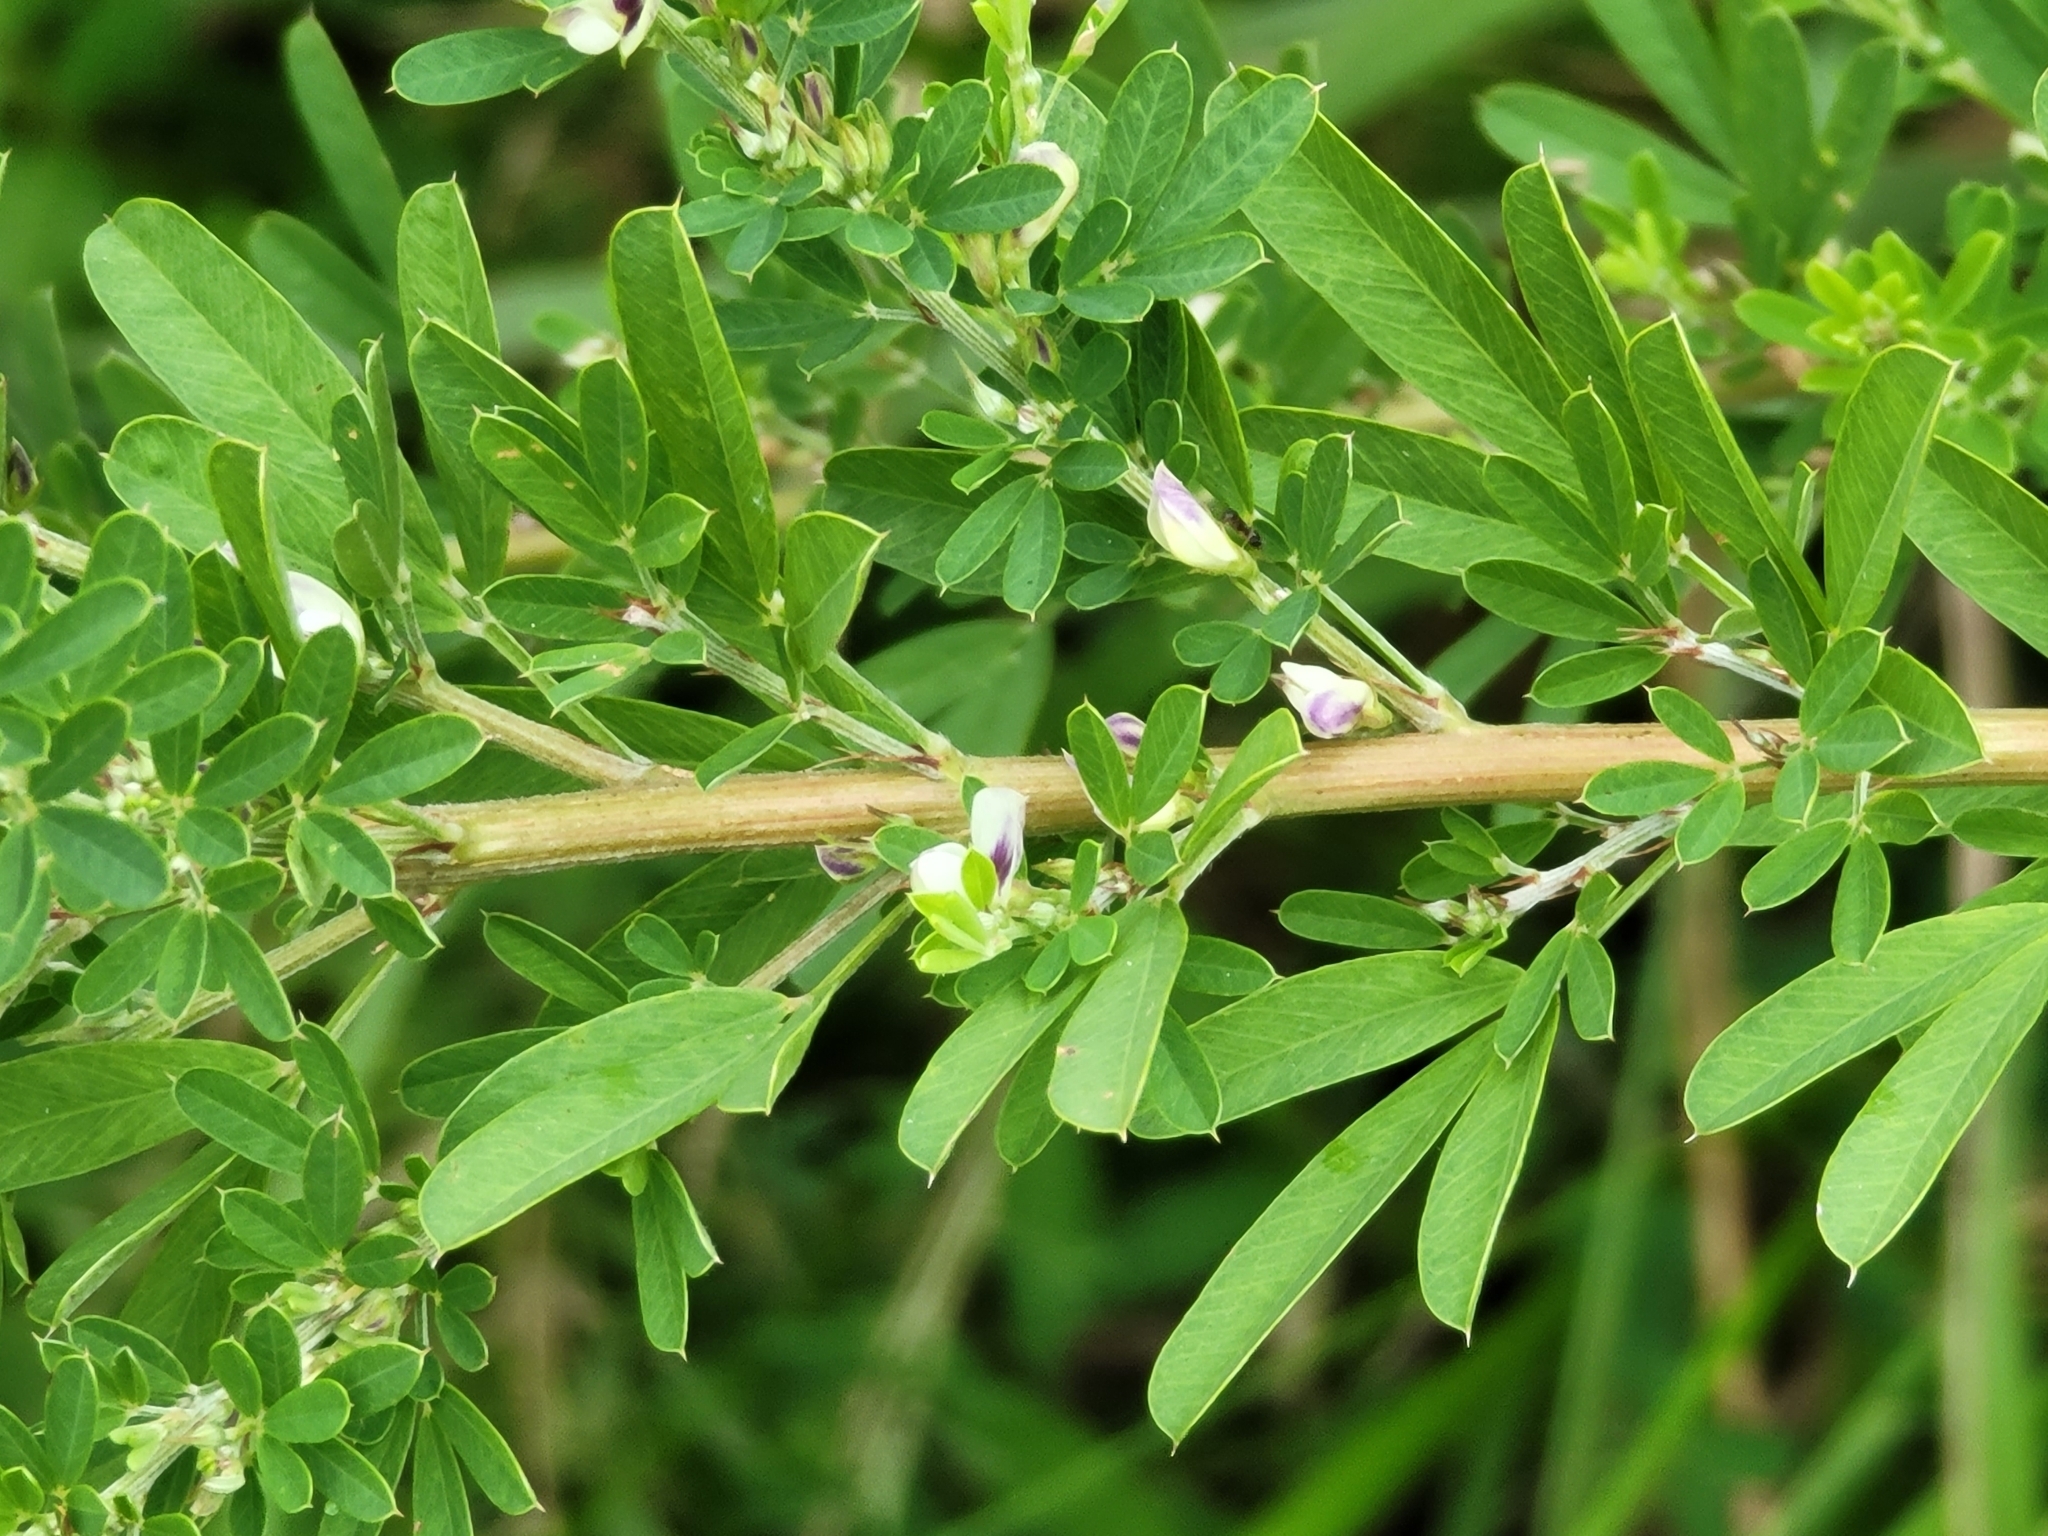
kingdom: Plantae
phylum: Tracheophyta
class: Magnoliopsida
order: Fabales
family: Fabaceae
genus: Lespedeza
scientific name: Lespedeza cuneata
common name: Chinese bush-clover
